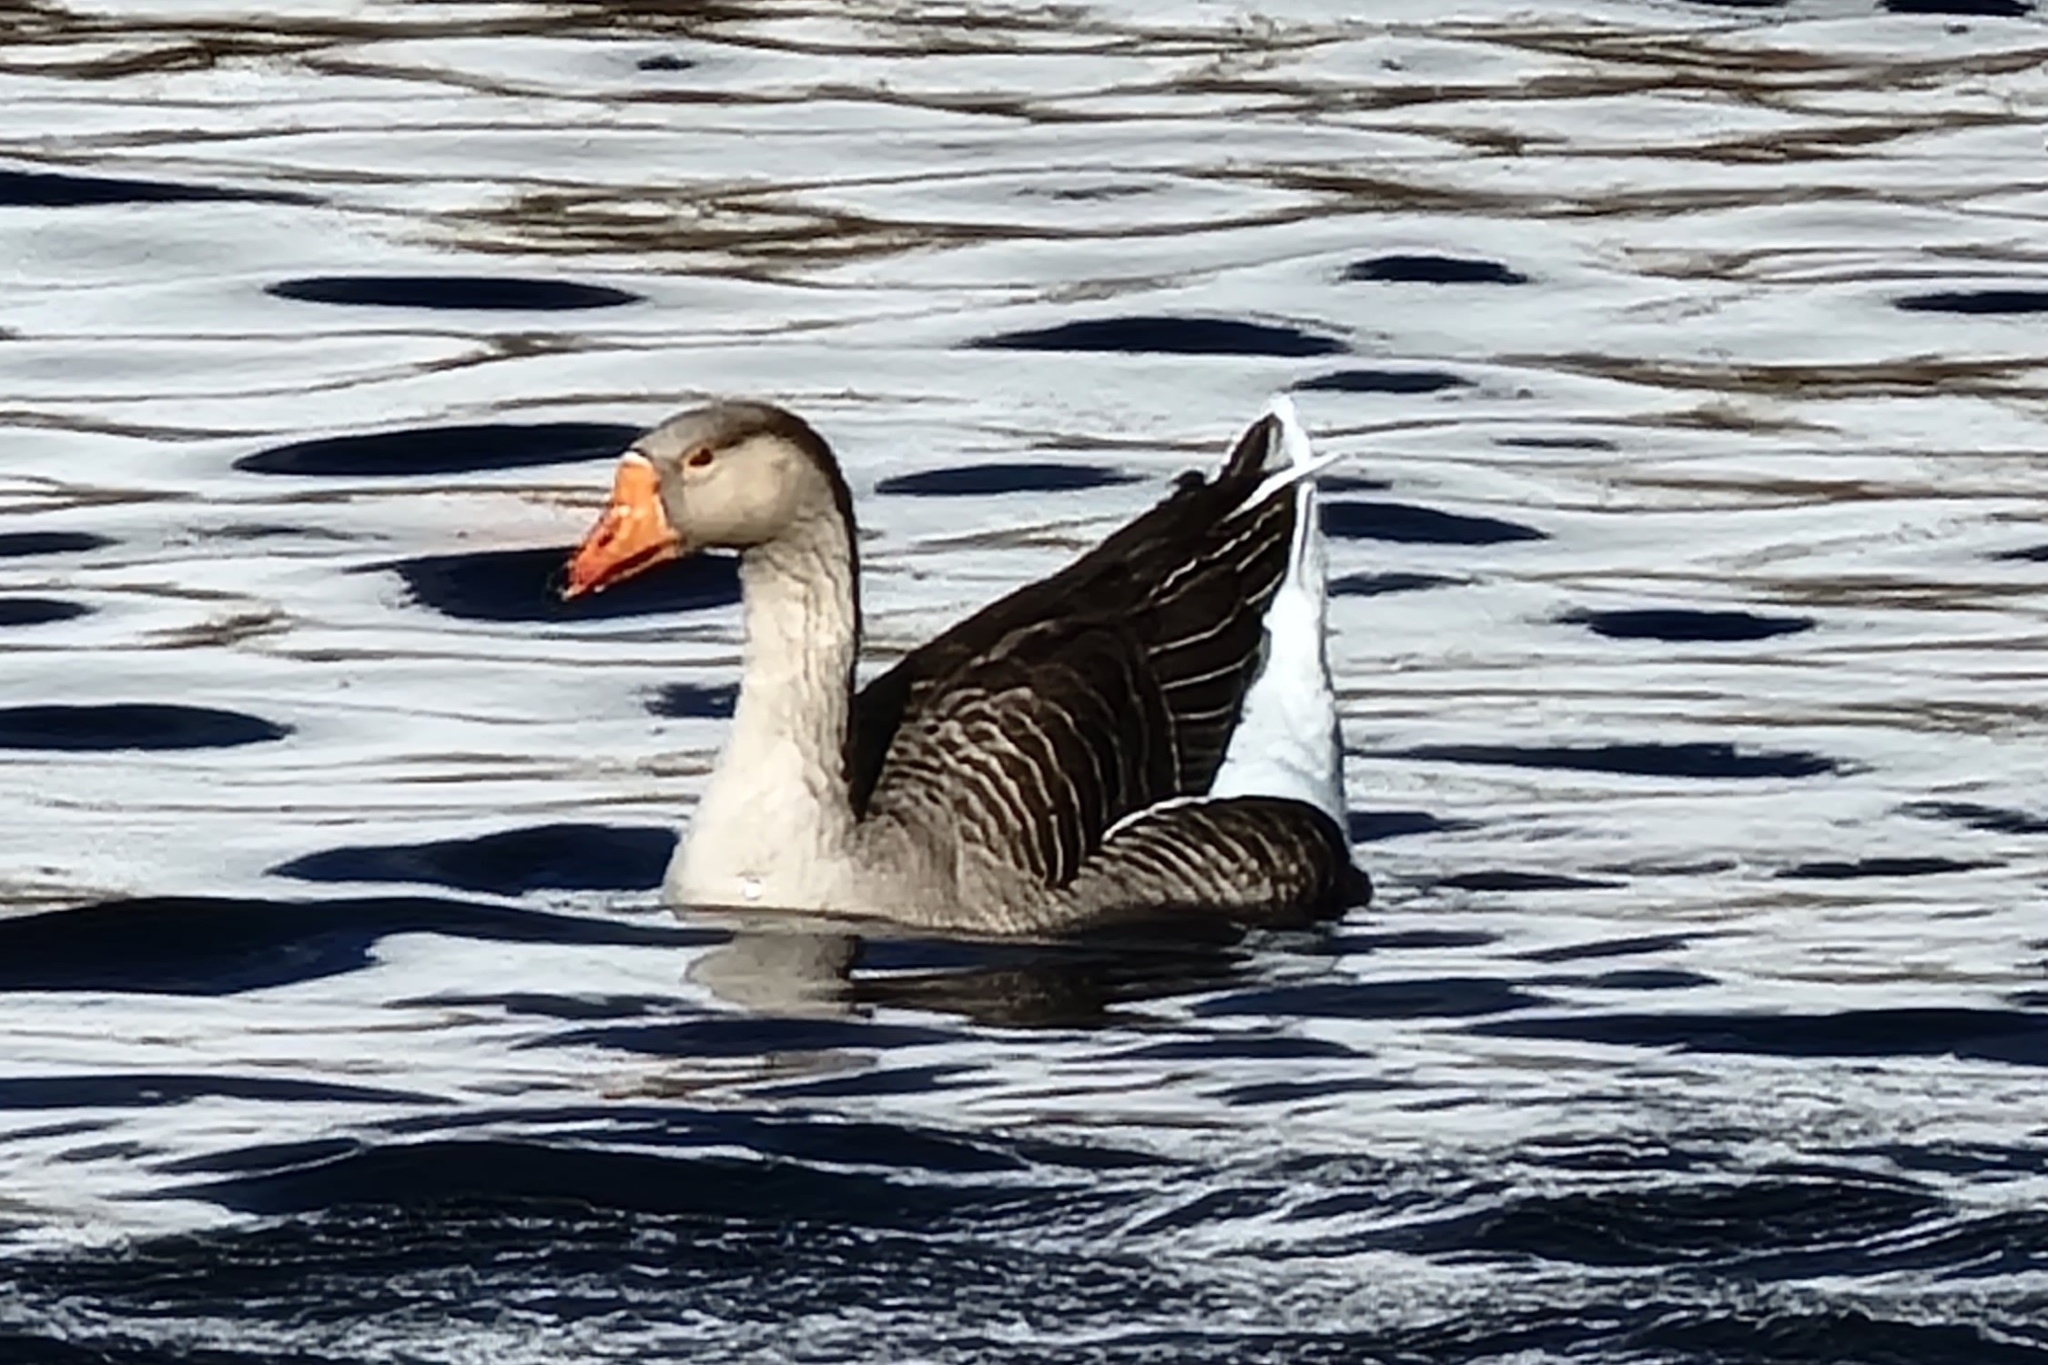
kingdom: Animalia
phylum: Chordata
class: Aves
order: Anseriformes
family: Anatidae
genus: Anser
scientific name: Anser
